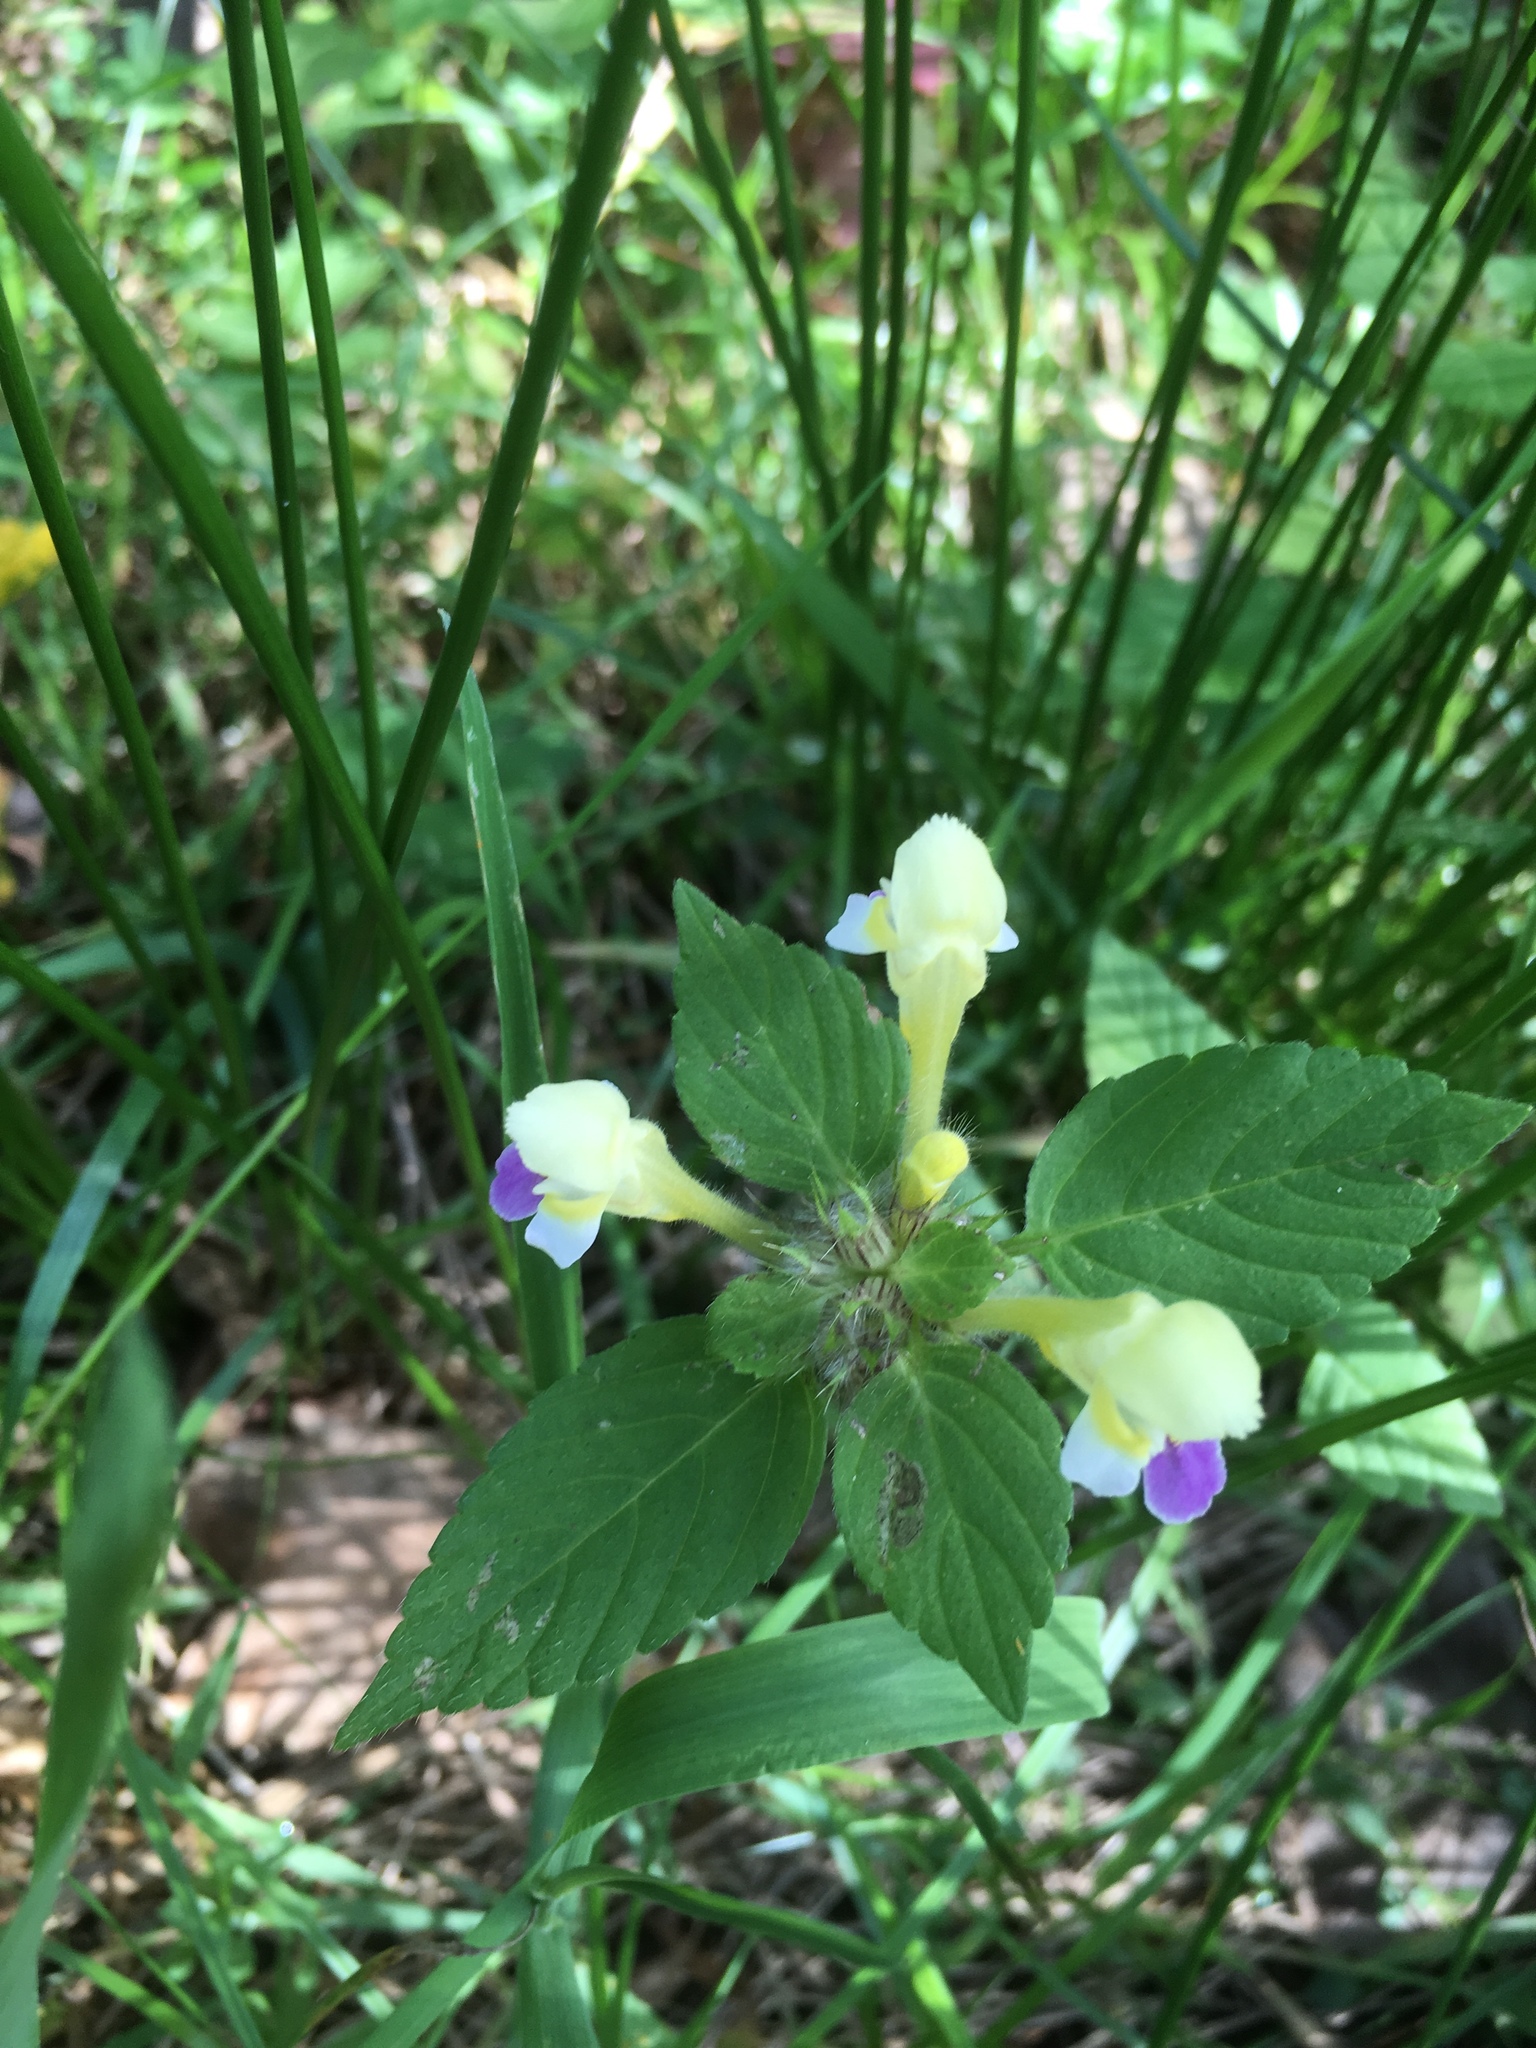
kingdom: Plantae
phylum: Tracheophyta
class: Magnoliopsida
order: Lamiales
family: Lamiaceae
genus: Galeopsis
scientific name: Galeopsis speciosa
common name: Large-flowered hemp-nettle
